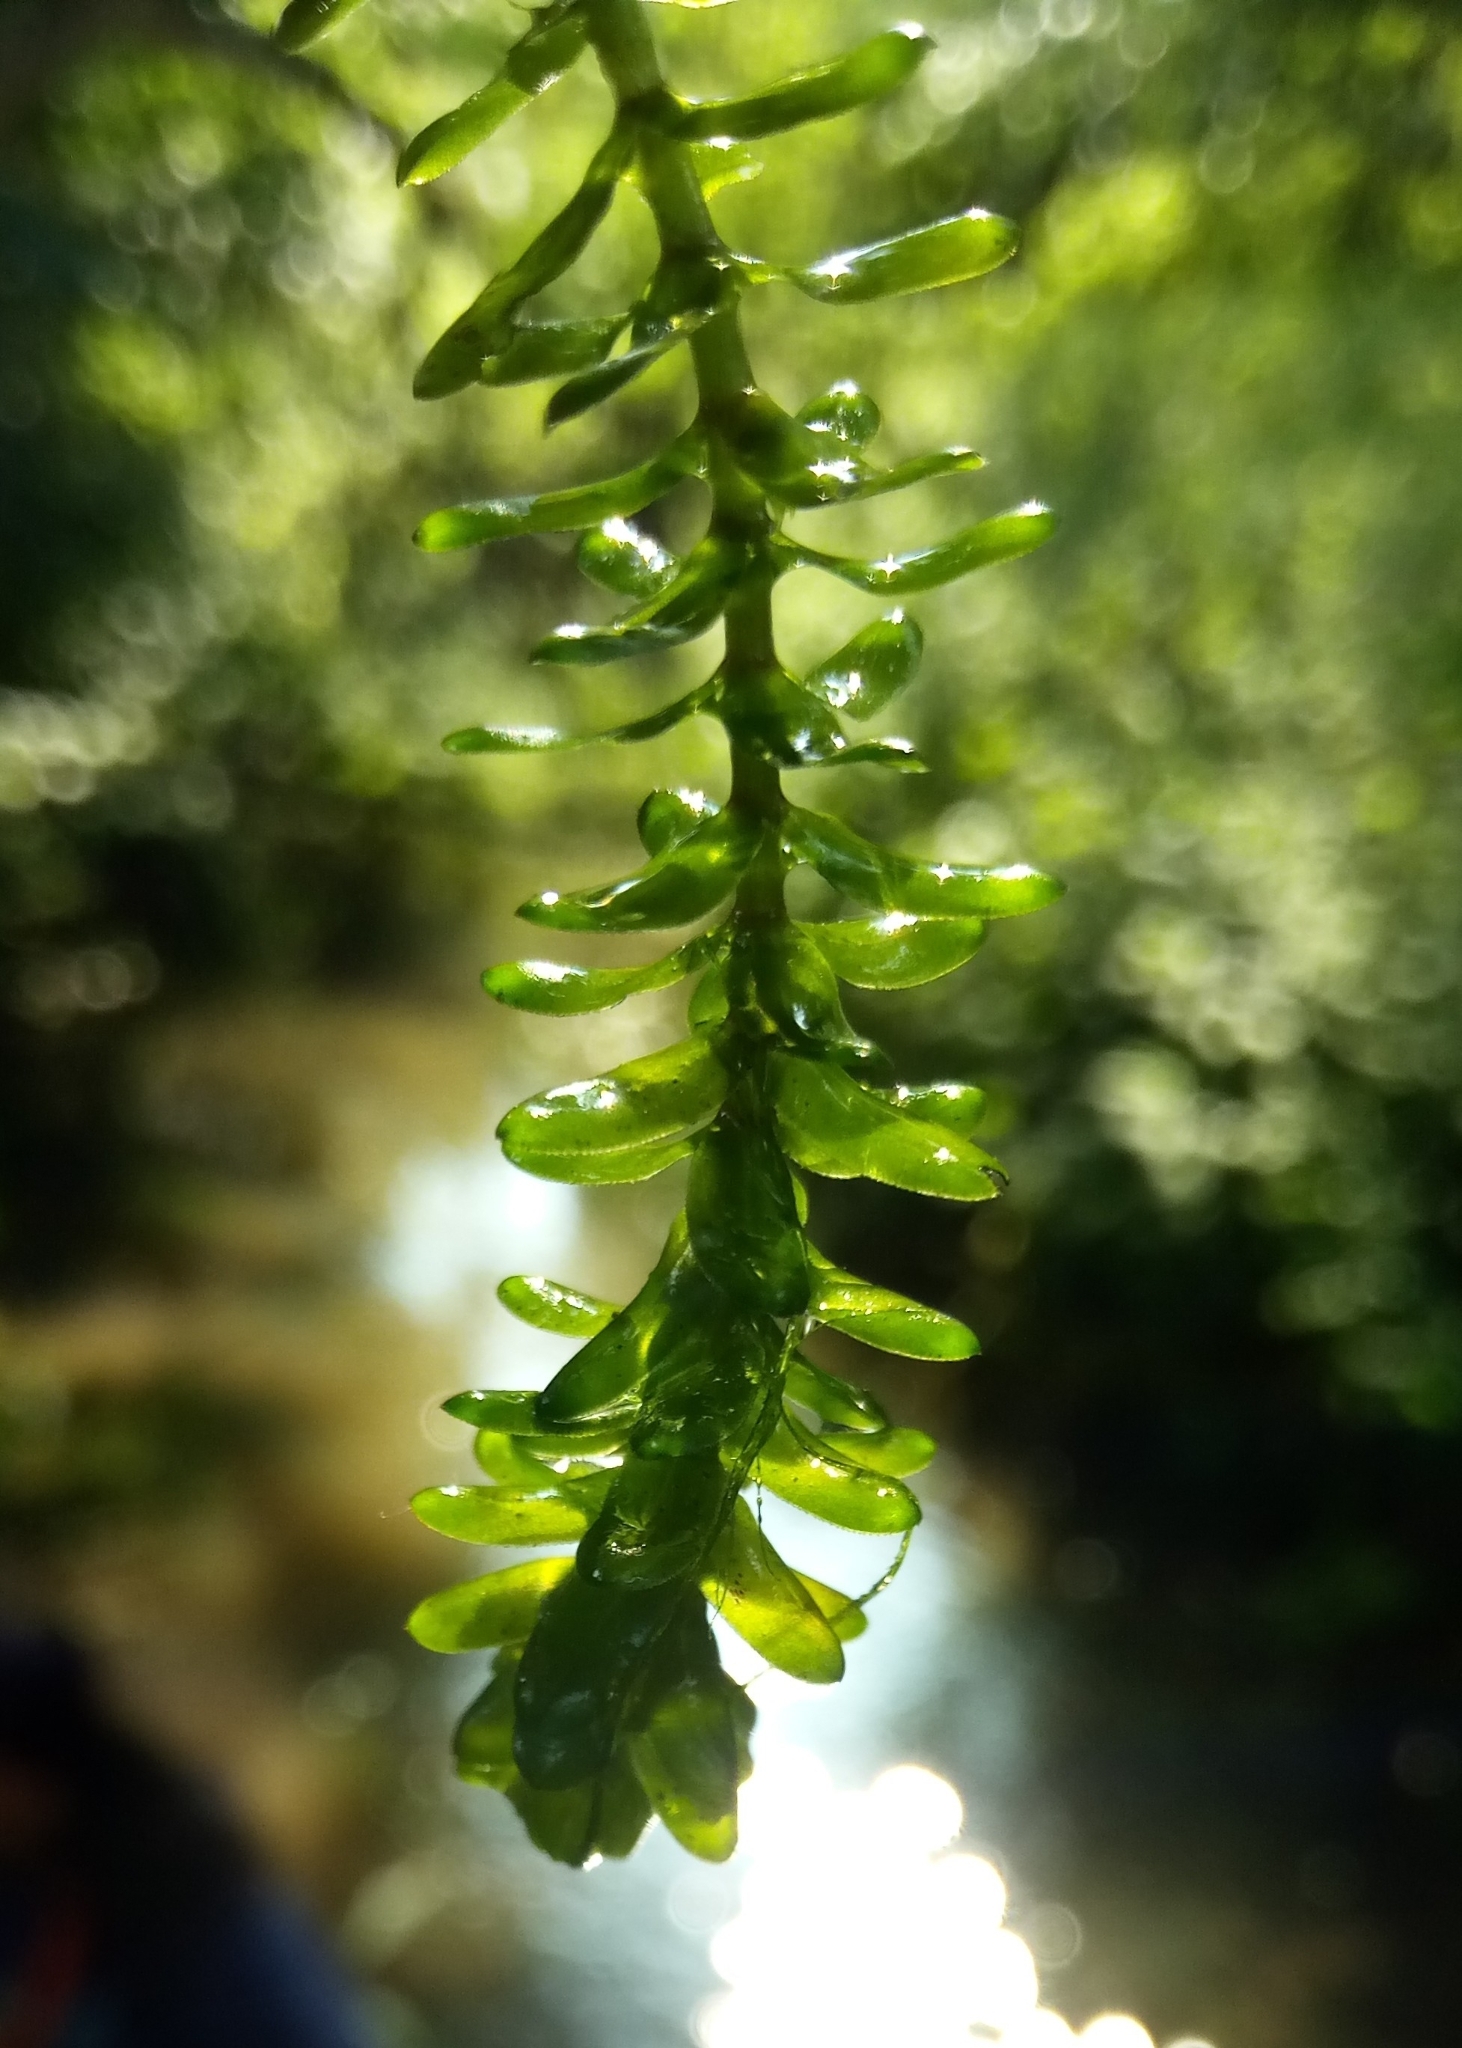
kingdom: Plantae
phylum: Tracheophyta
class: Liliopsida
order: Alismatales
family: Hydrocharitaceae
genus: Elodea
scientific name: Elodea canadensis
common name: Canadian waterweed
